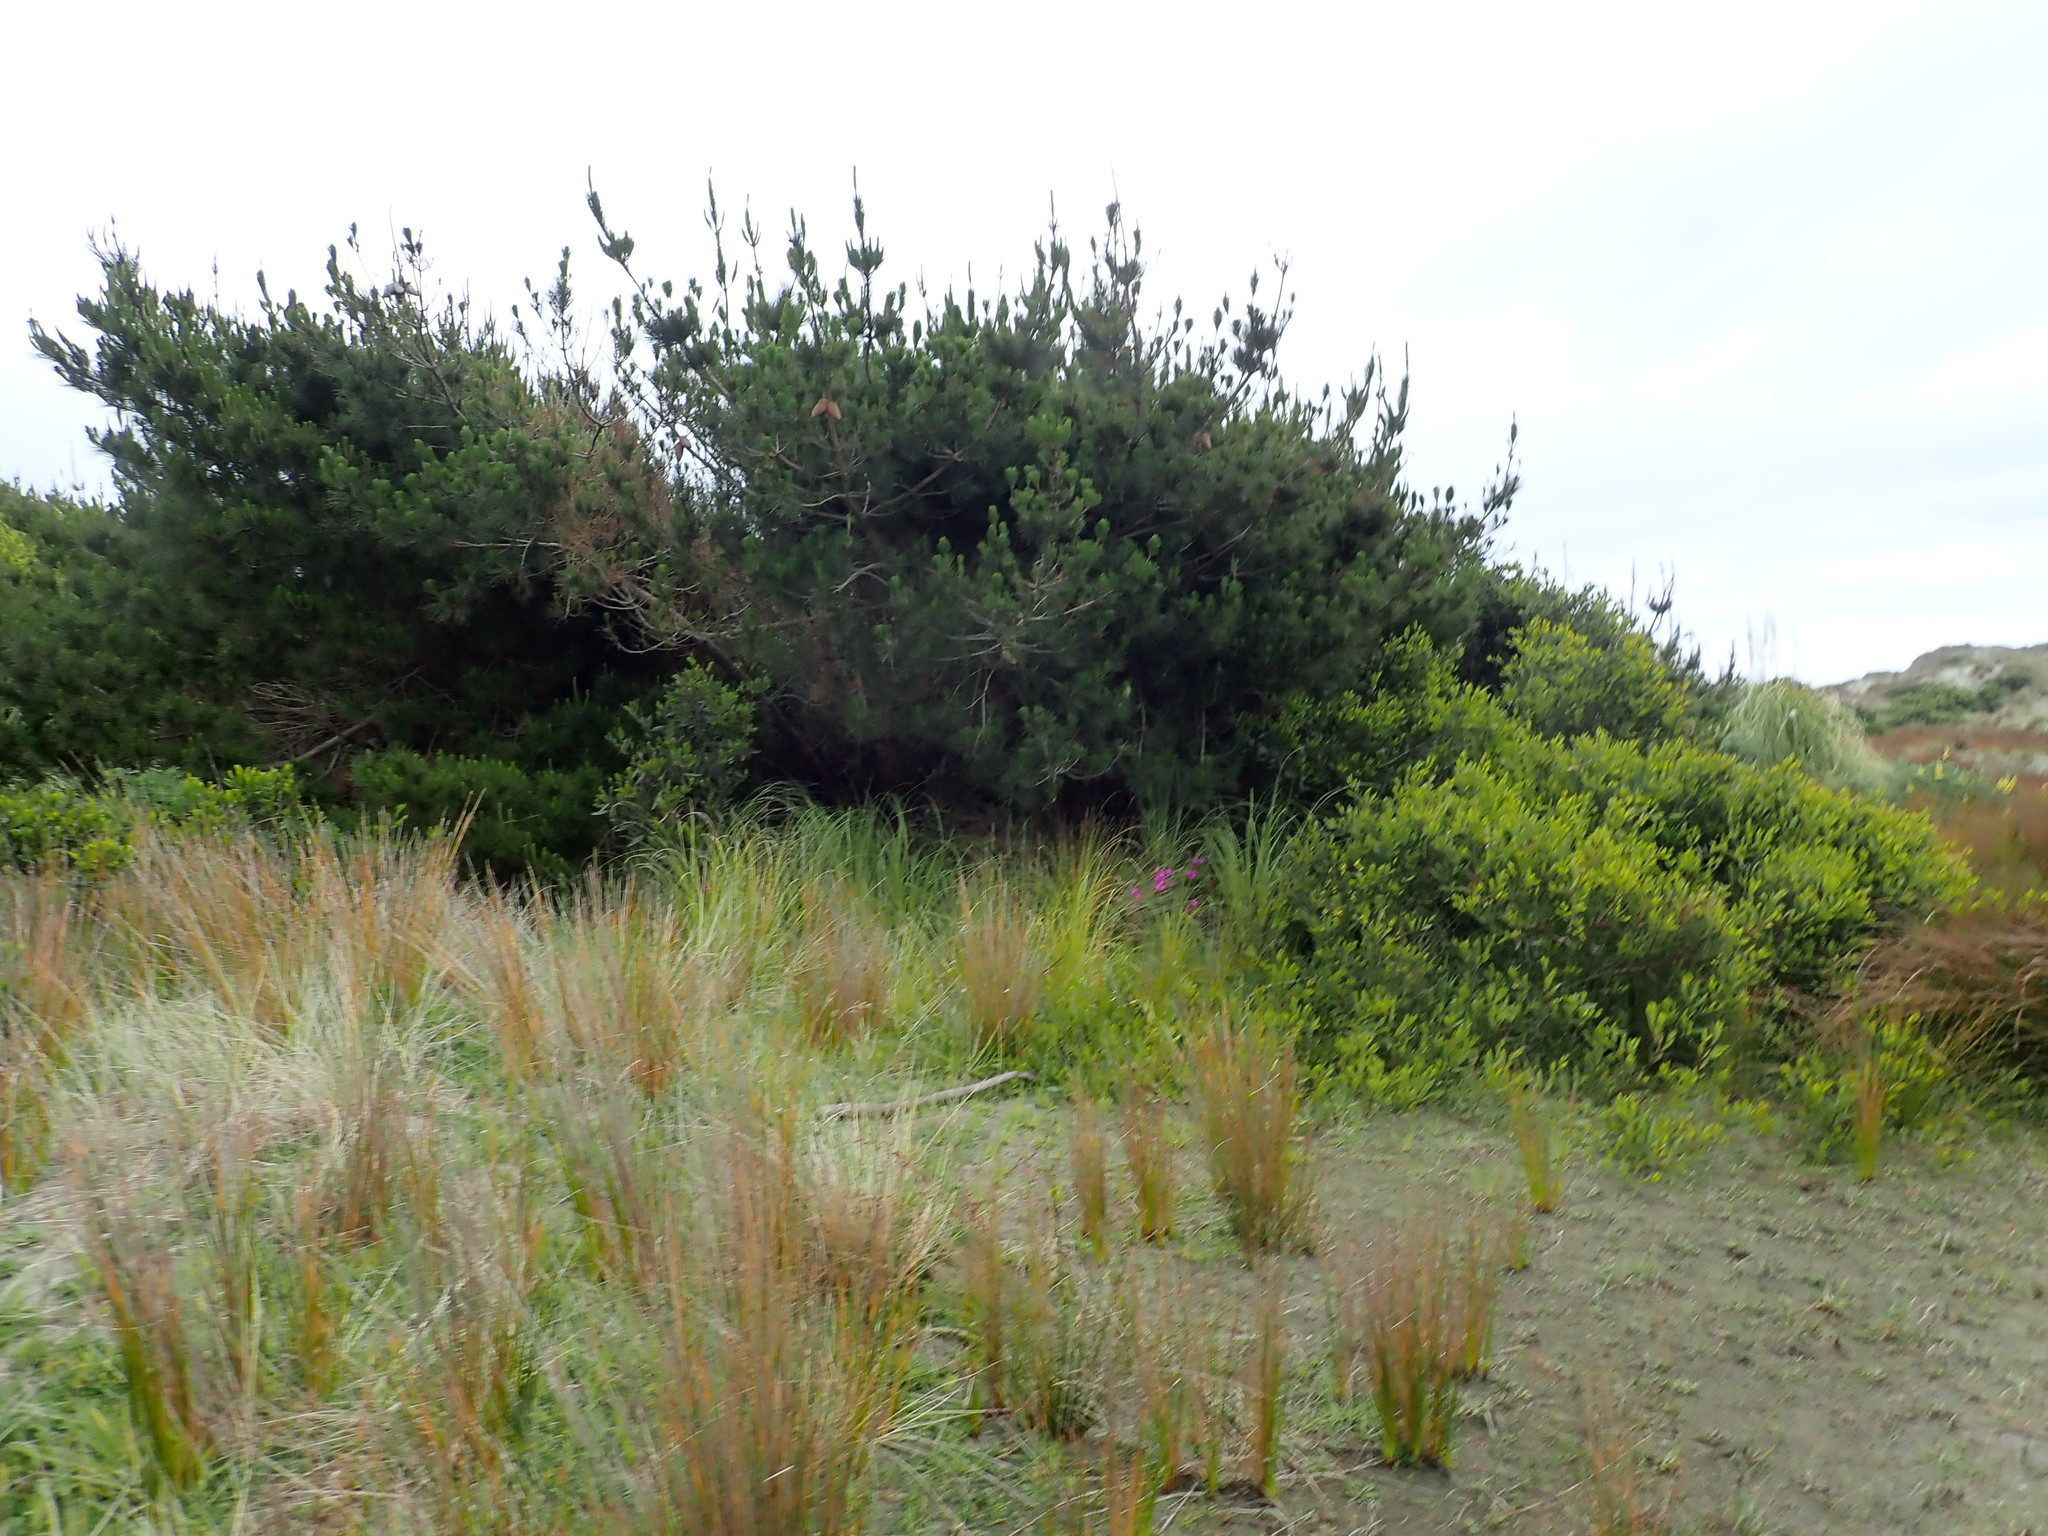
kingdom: Plantae
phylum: Tracheophyta
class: Pinopsida
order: Pinales
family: Pinaceae
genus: Pinus
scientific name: Pinus radiata
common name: Monterey pine
